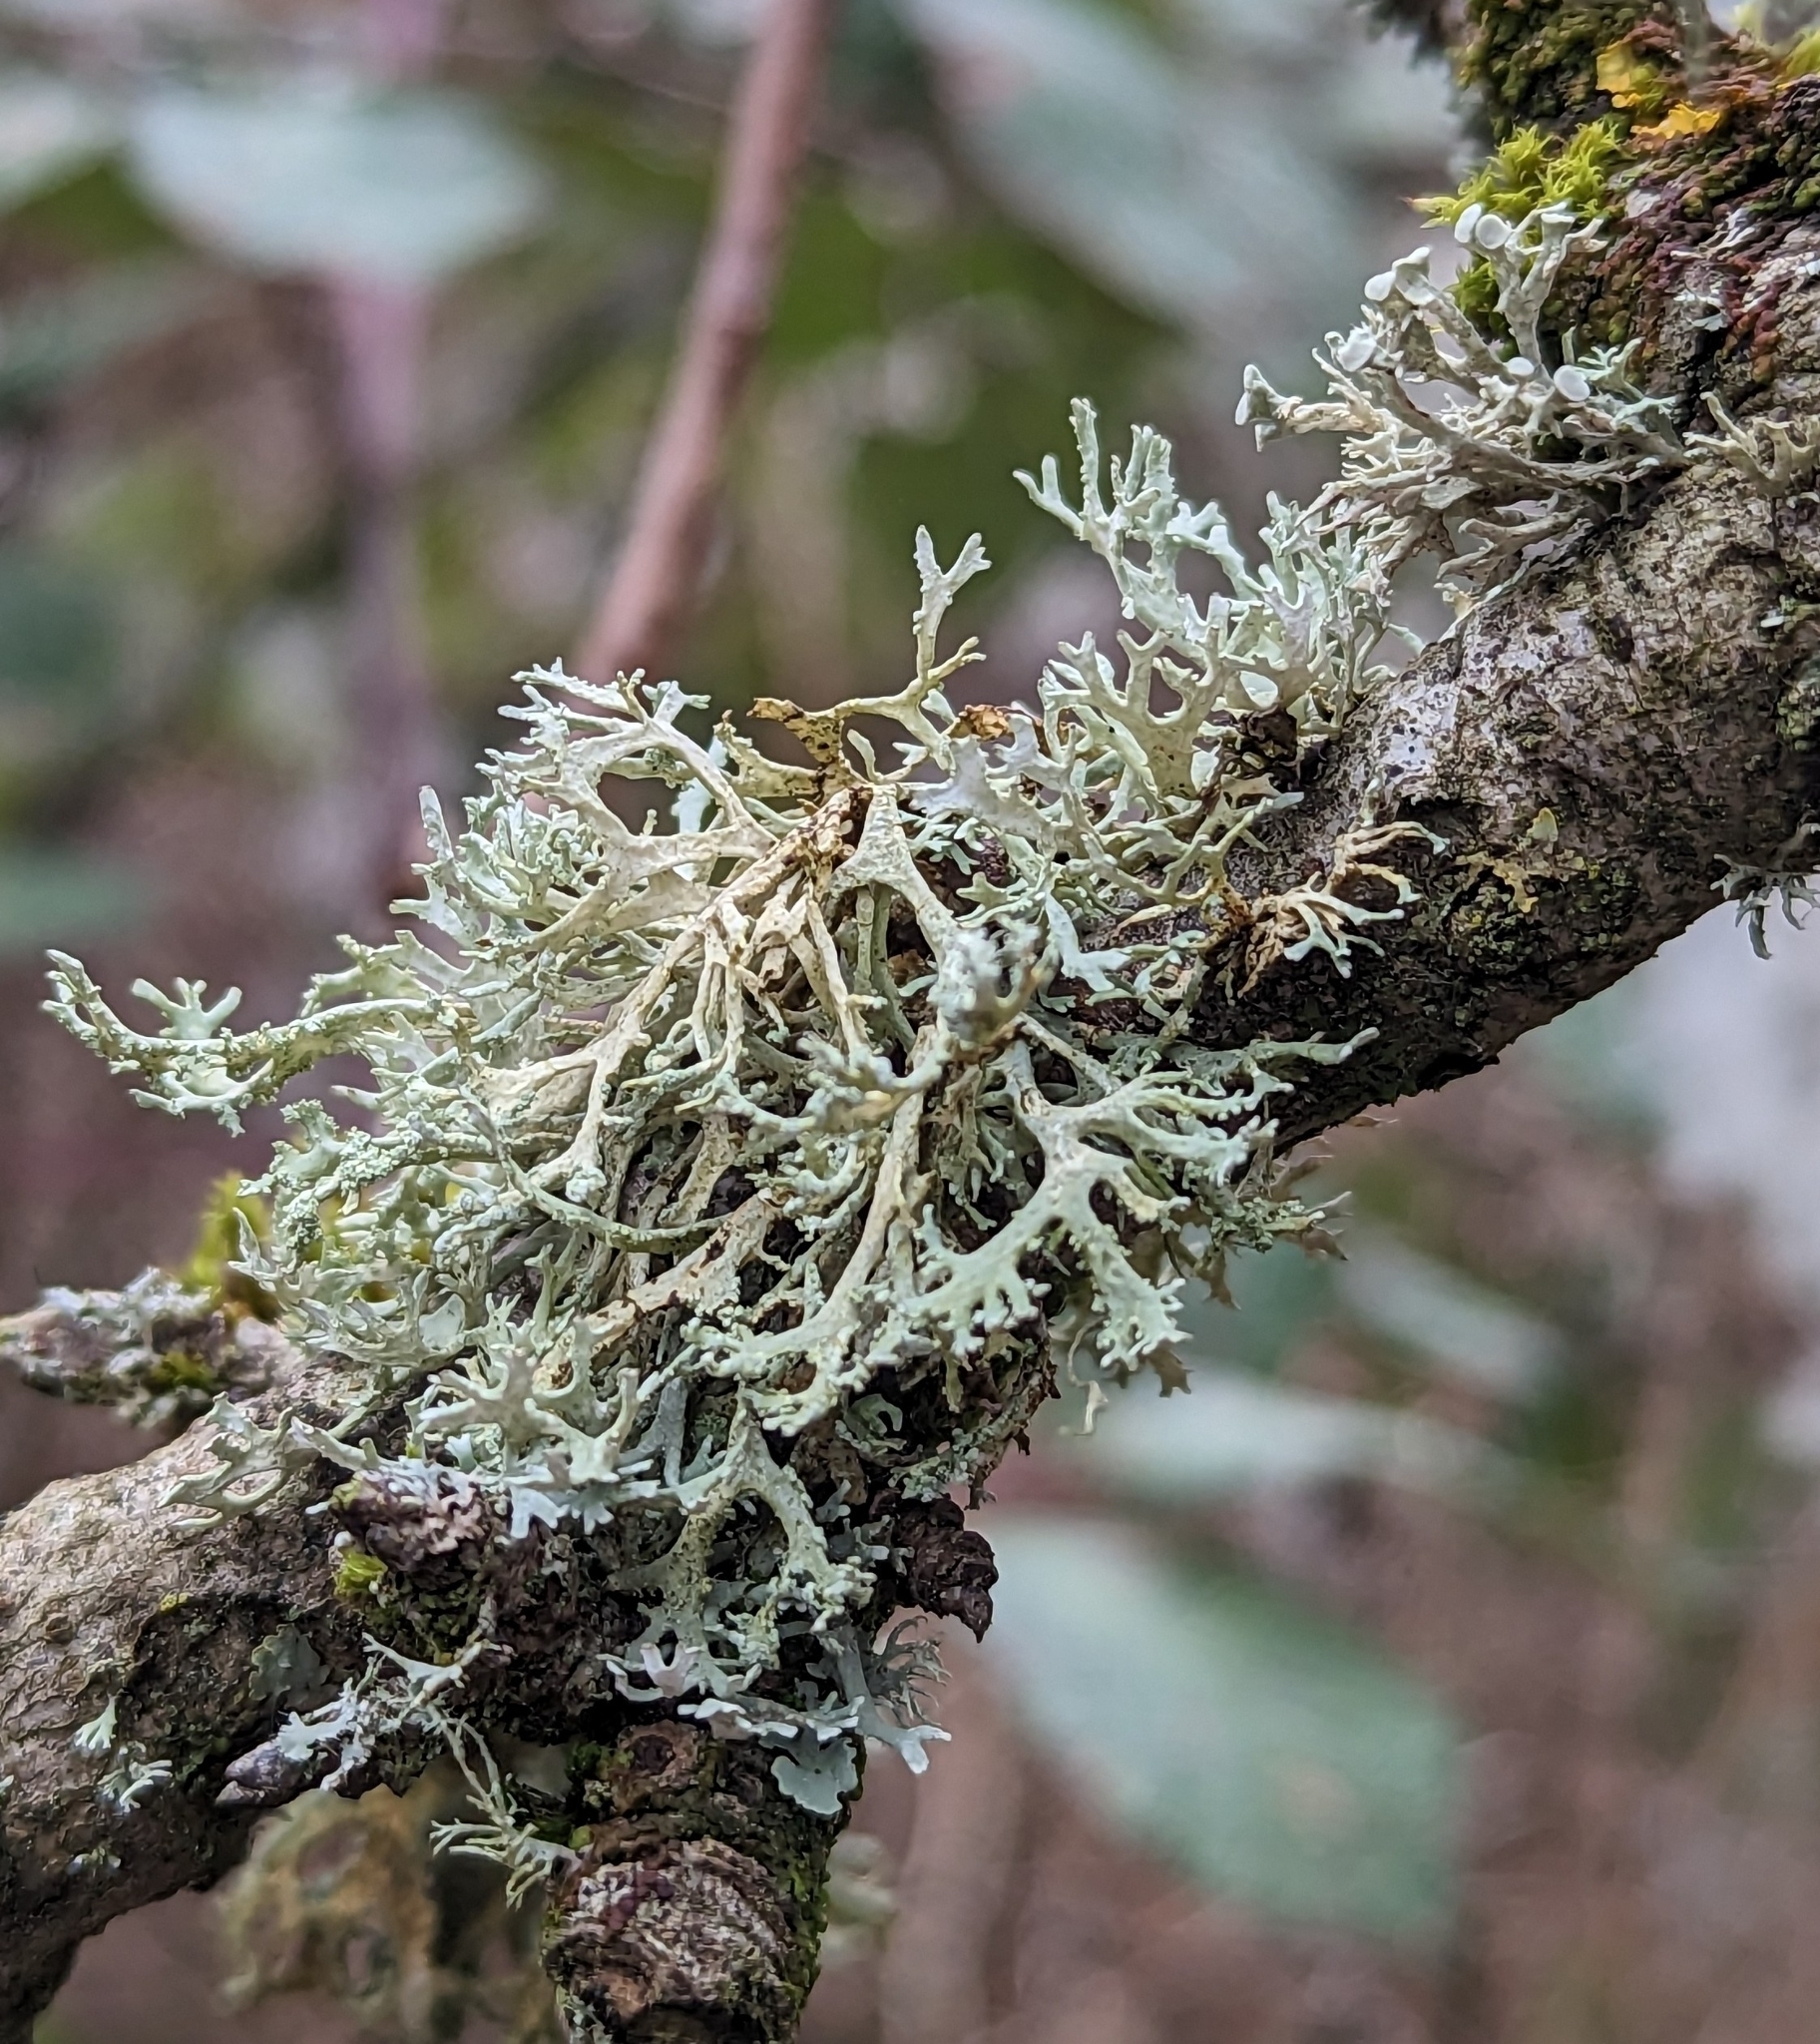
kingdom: Fungi
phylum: Ascomycota
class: Lecanoromycetes
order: Lecanorales
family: Parmeliaceae
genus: Evernia
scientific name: Evernia prunastri
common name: Oak moss
